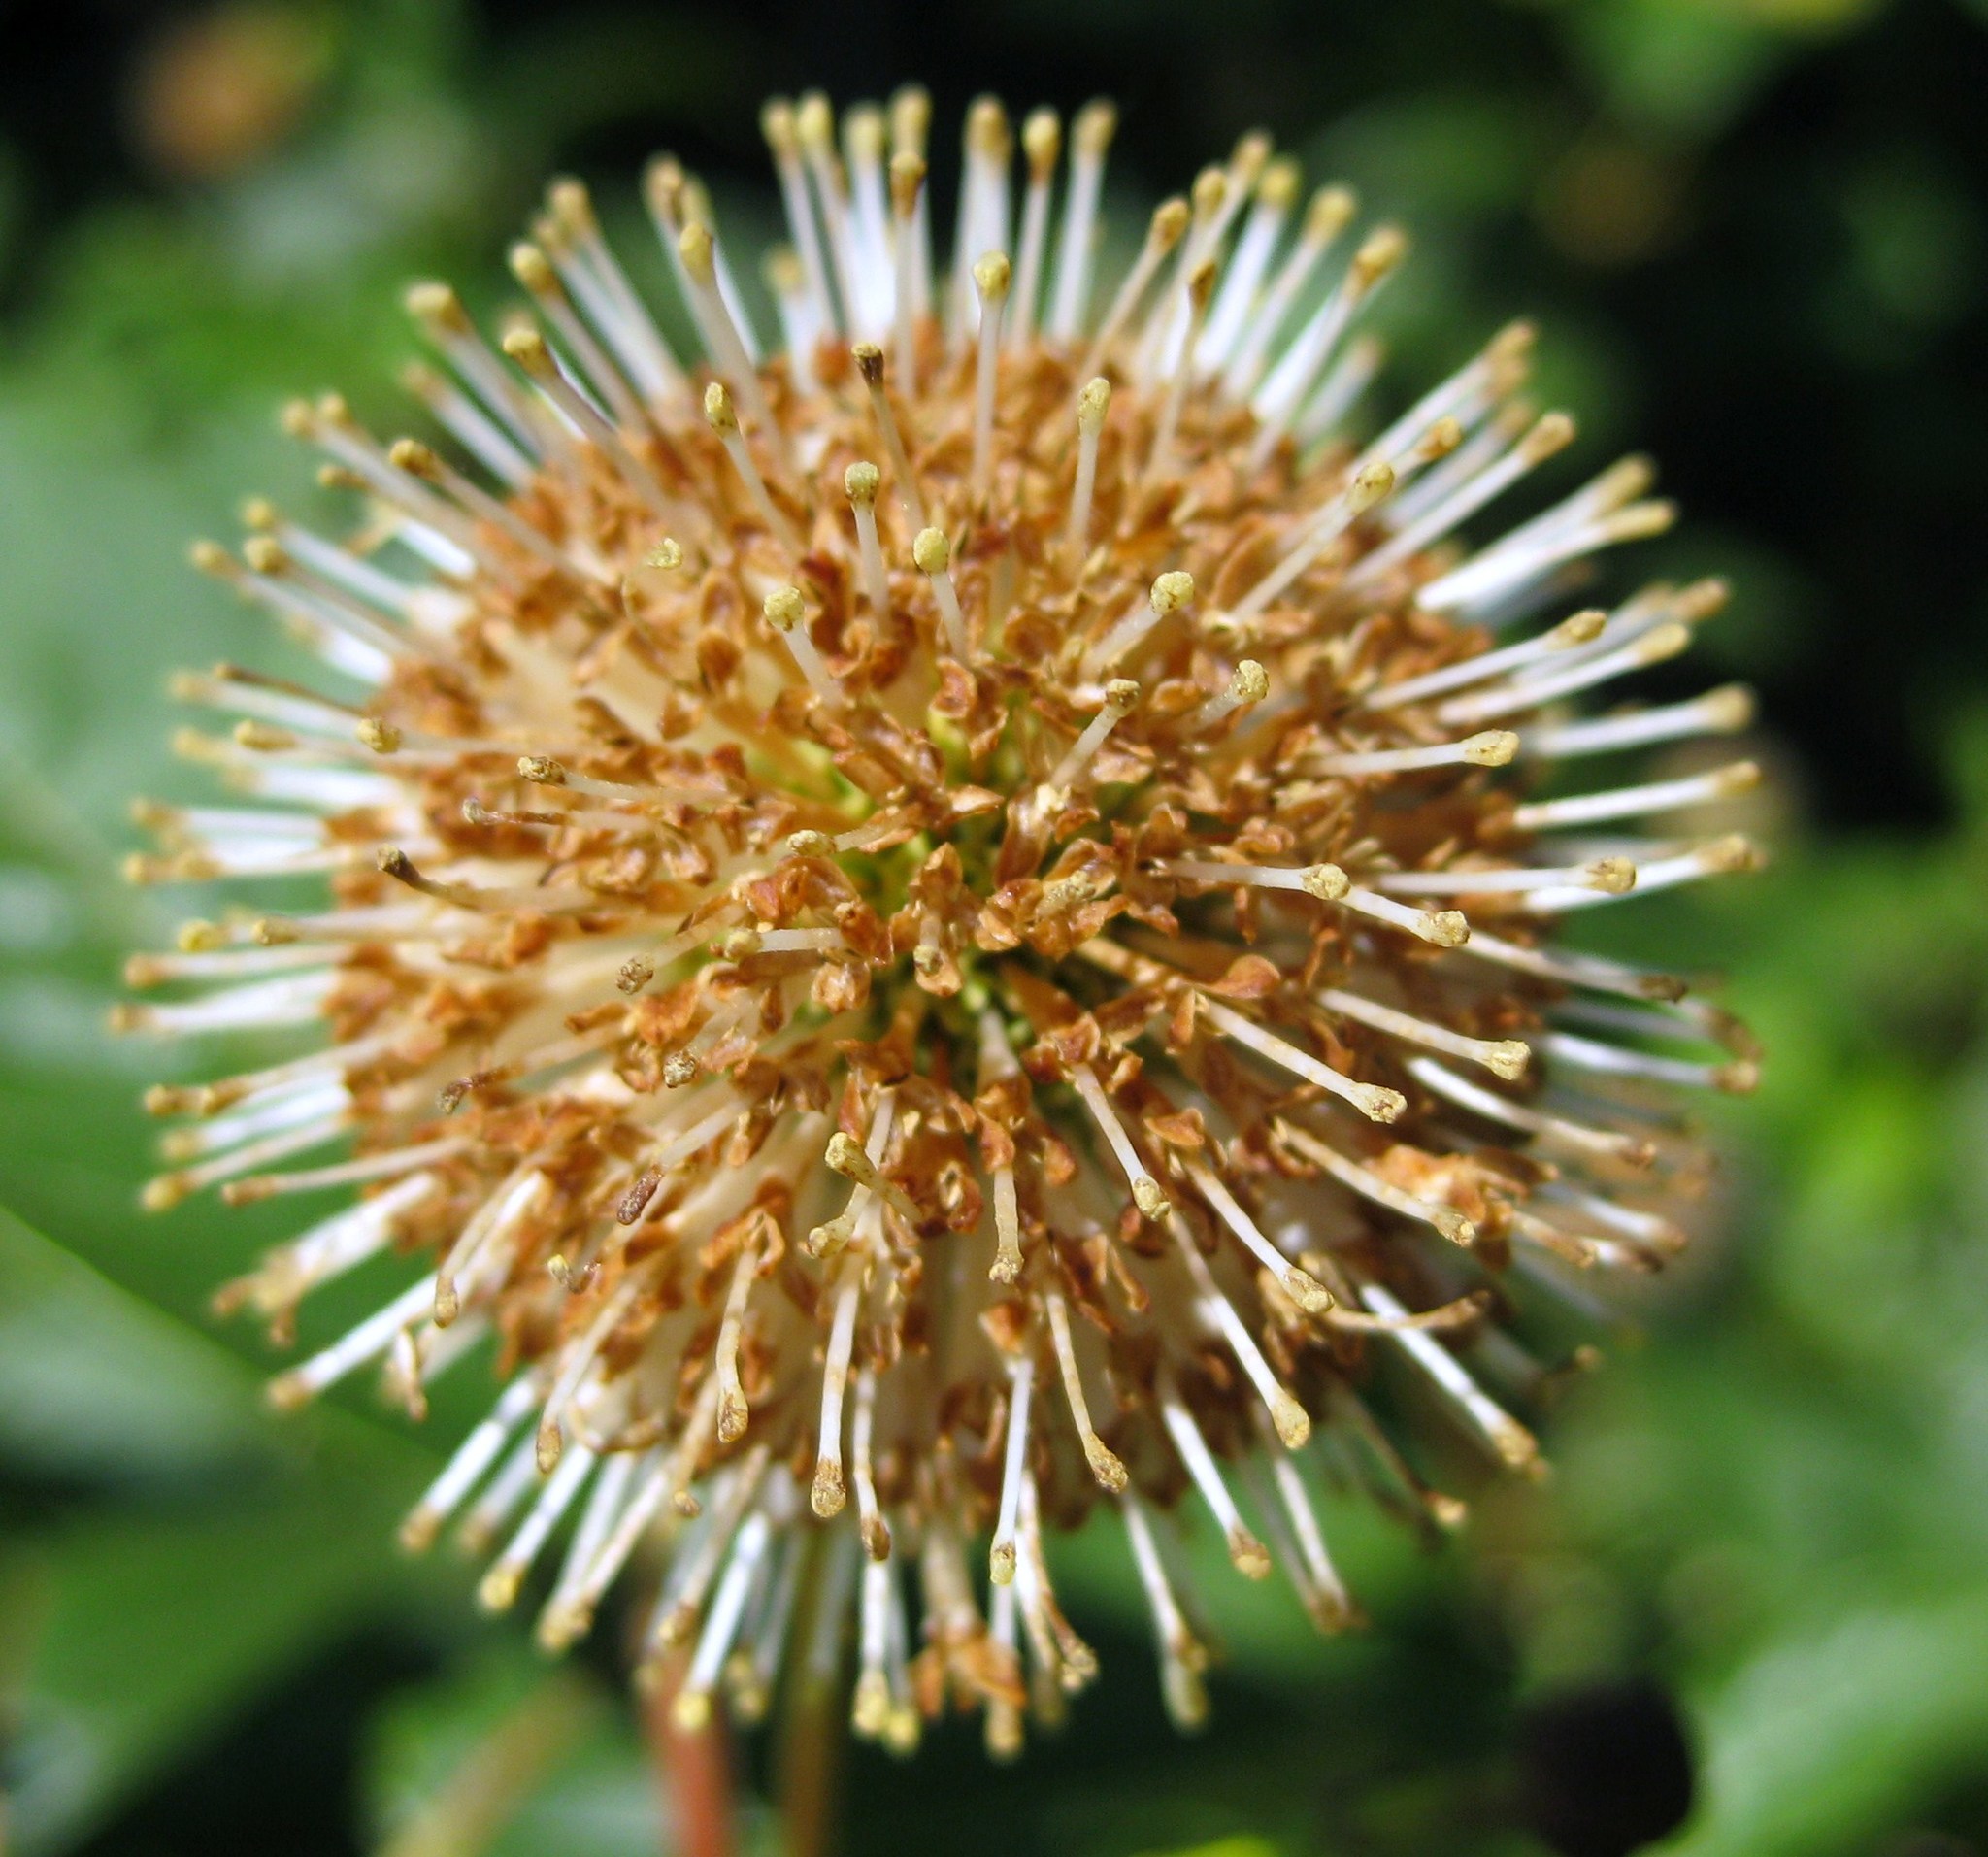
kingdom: Plantae
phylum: Tracheophyta
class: Magnoliopsida
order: Gentianales
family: Rubiaceae
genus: Cephalanthus
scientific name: Cephalanthus occidentalis
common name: Button-willow
